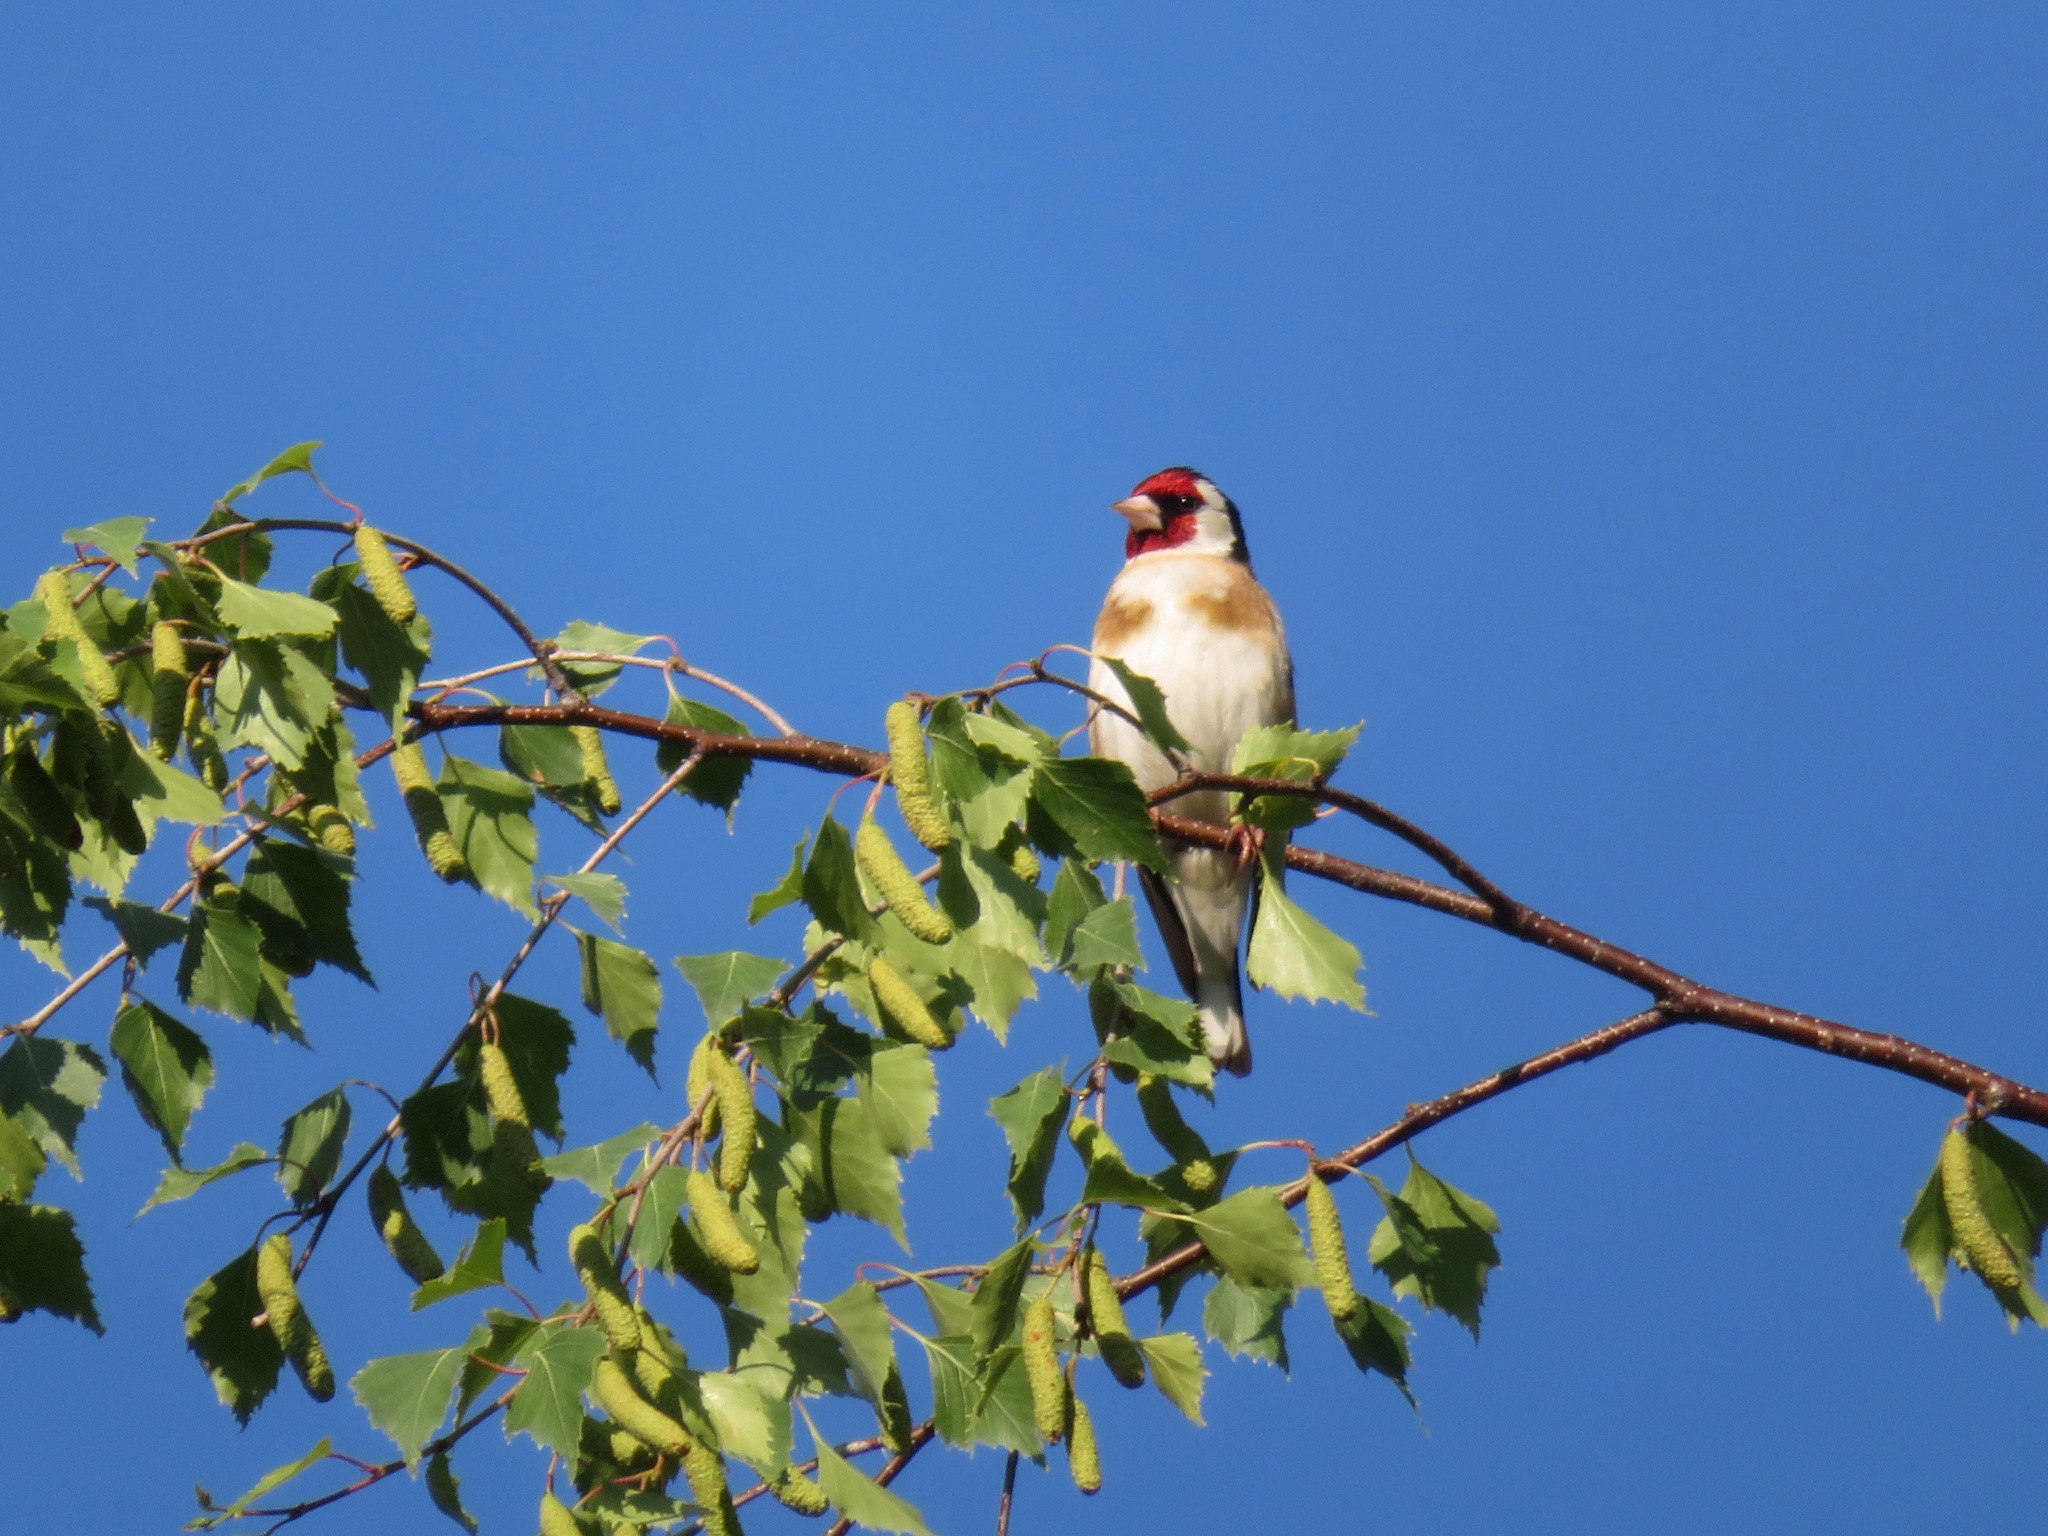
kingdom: Animalia
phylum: Chordata
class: Aves
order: Passeriformes
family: Fringillidae
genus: Carduelis
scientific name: Carduelis carduelis
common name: European goldfinch
